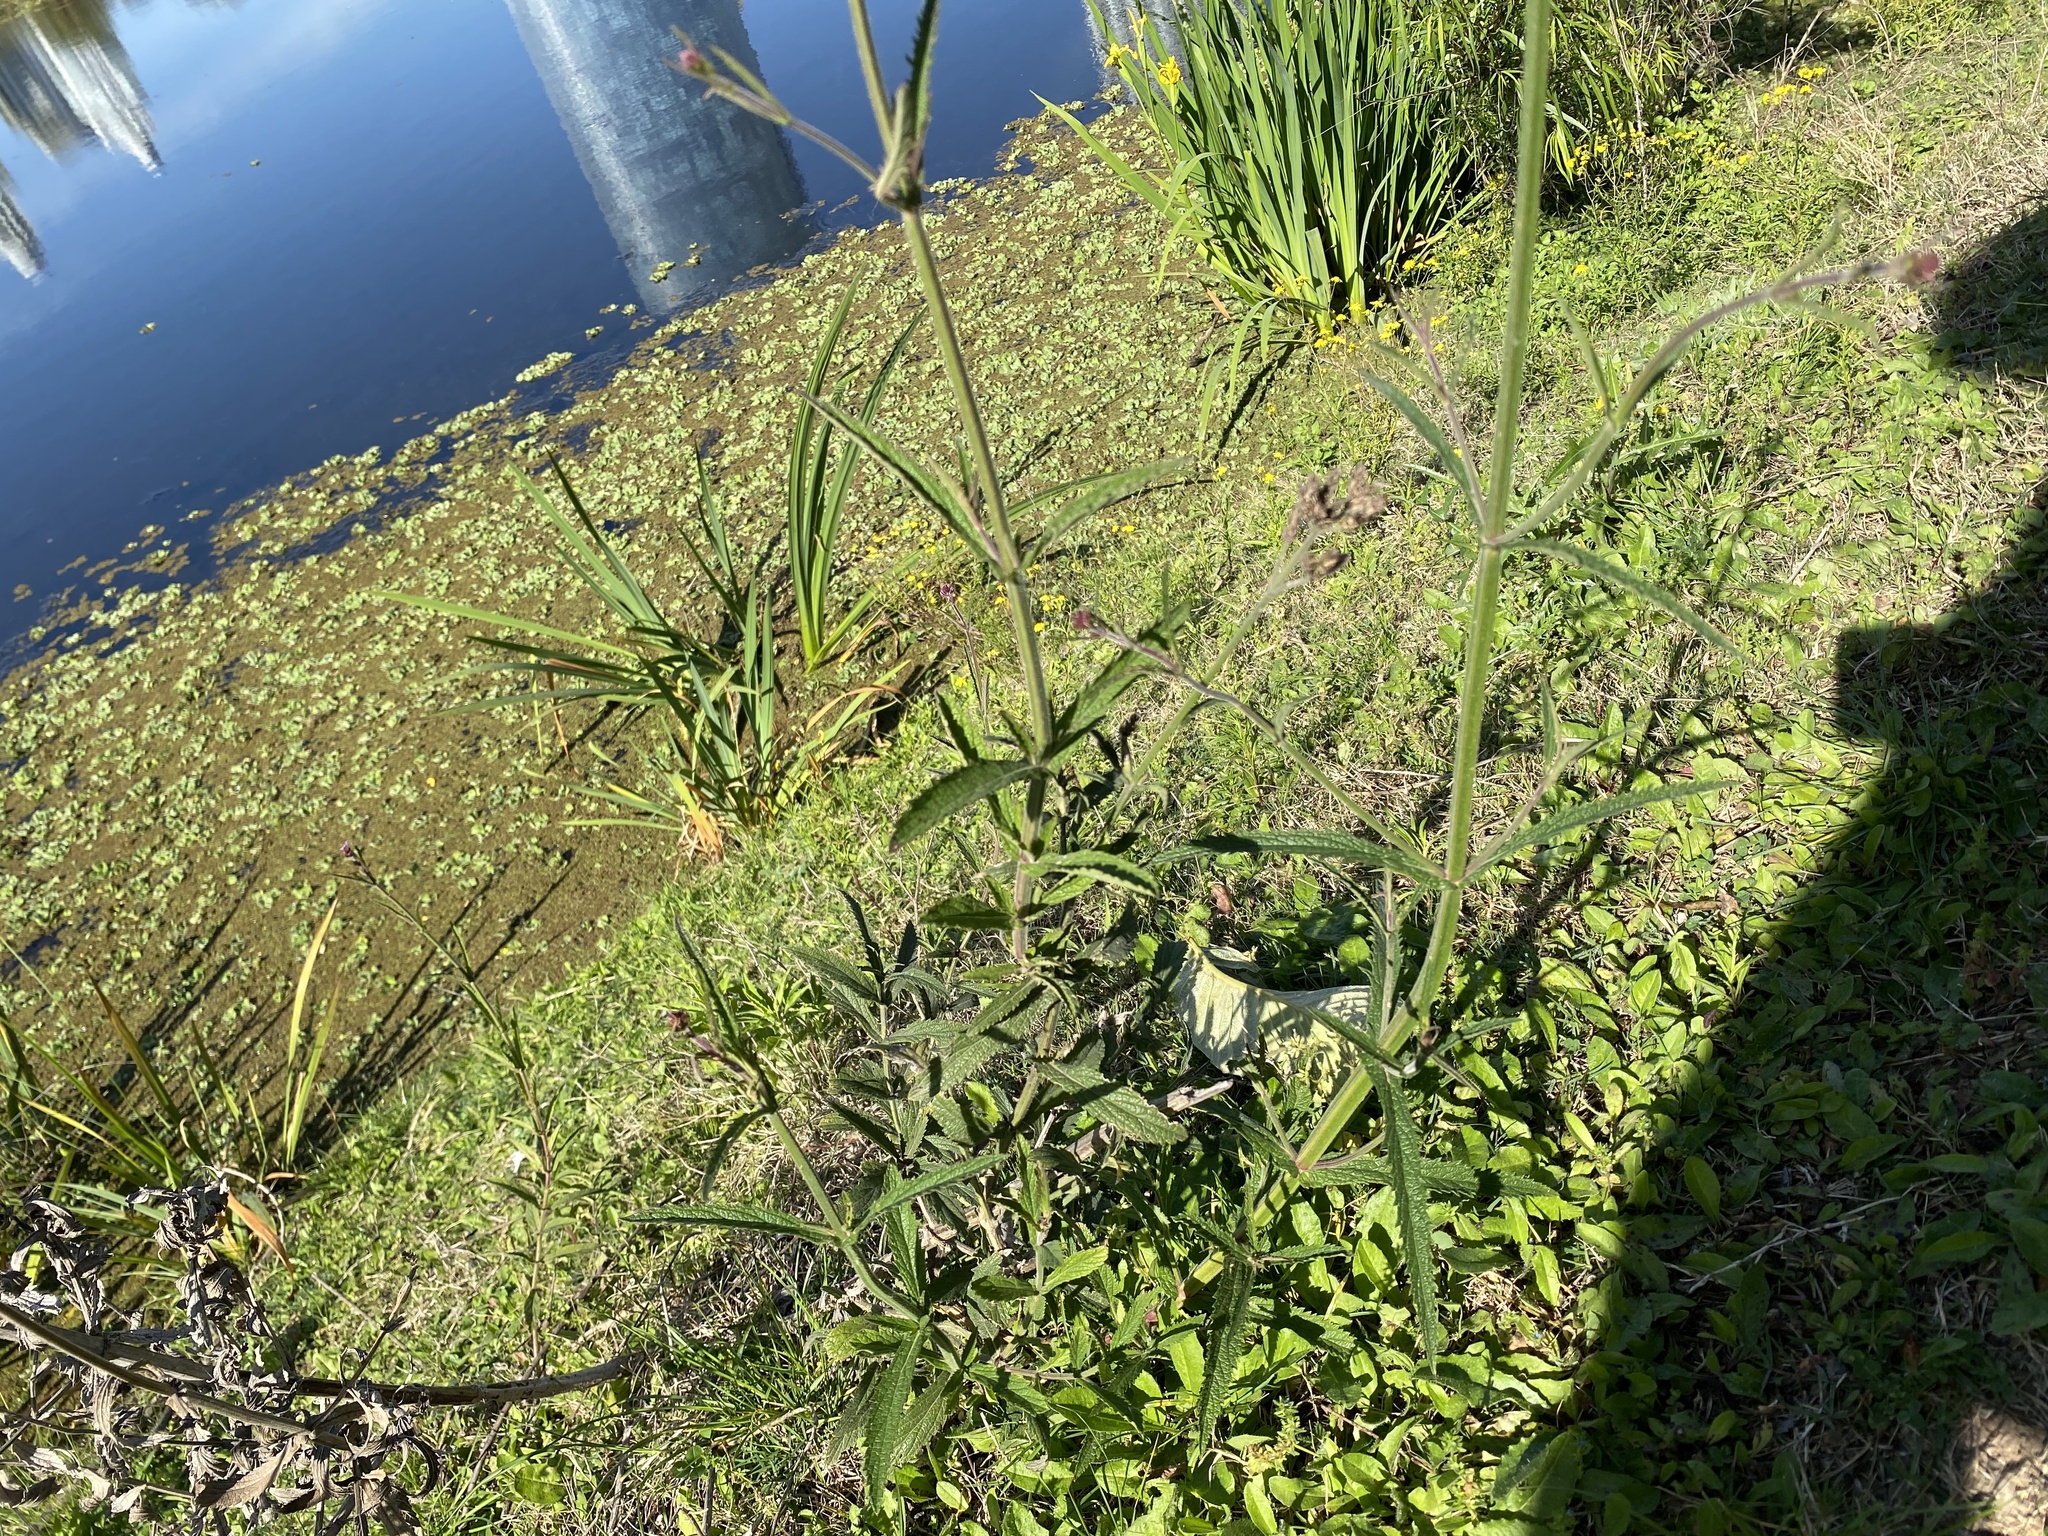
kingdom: Plantae
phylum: Tracheophyta
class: Magnoliopsida
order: Lamiales
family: Verbenaceae
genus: Verbena
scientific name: Verbena bonariensis
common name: Purpletop vervain
